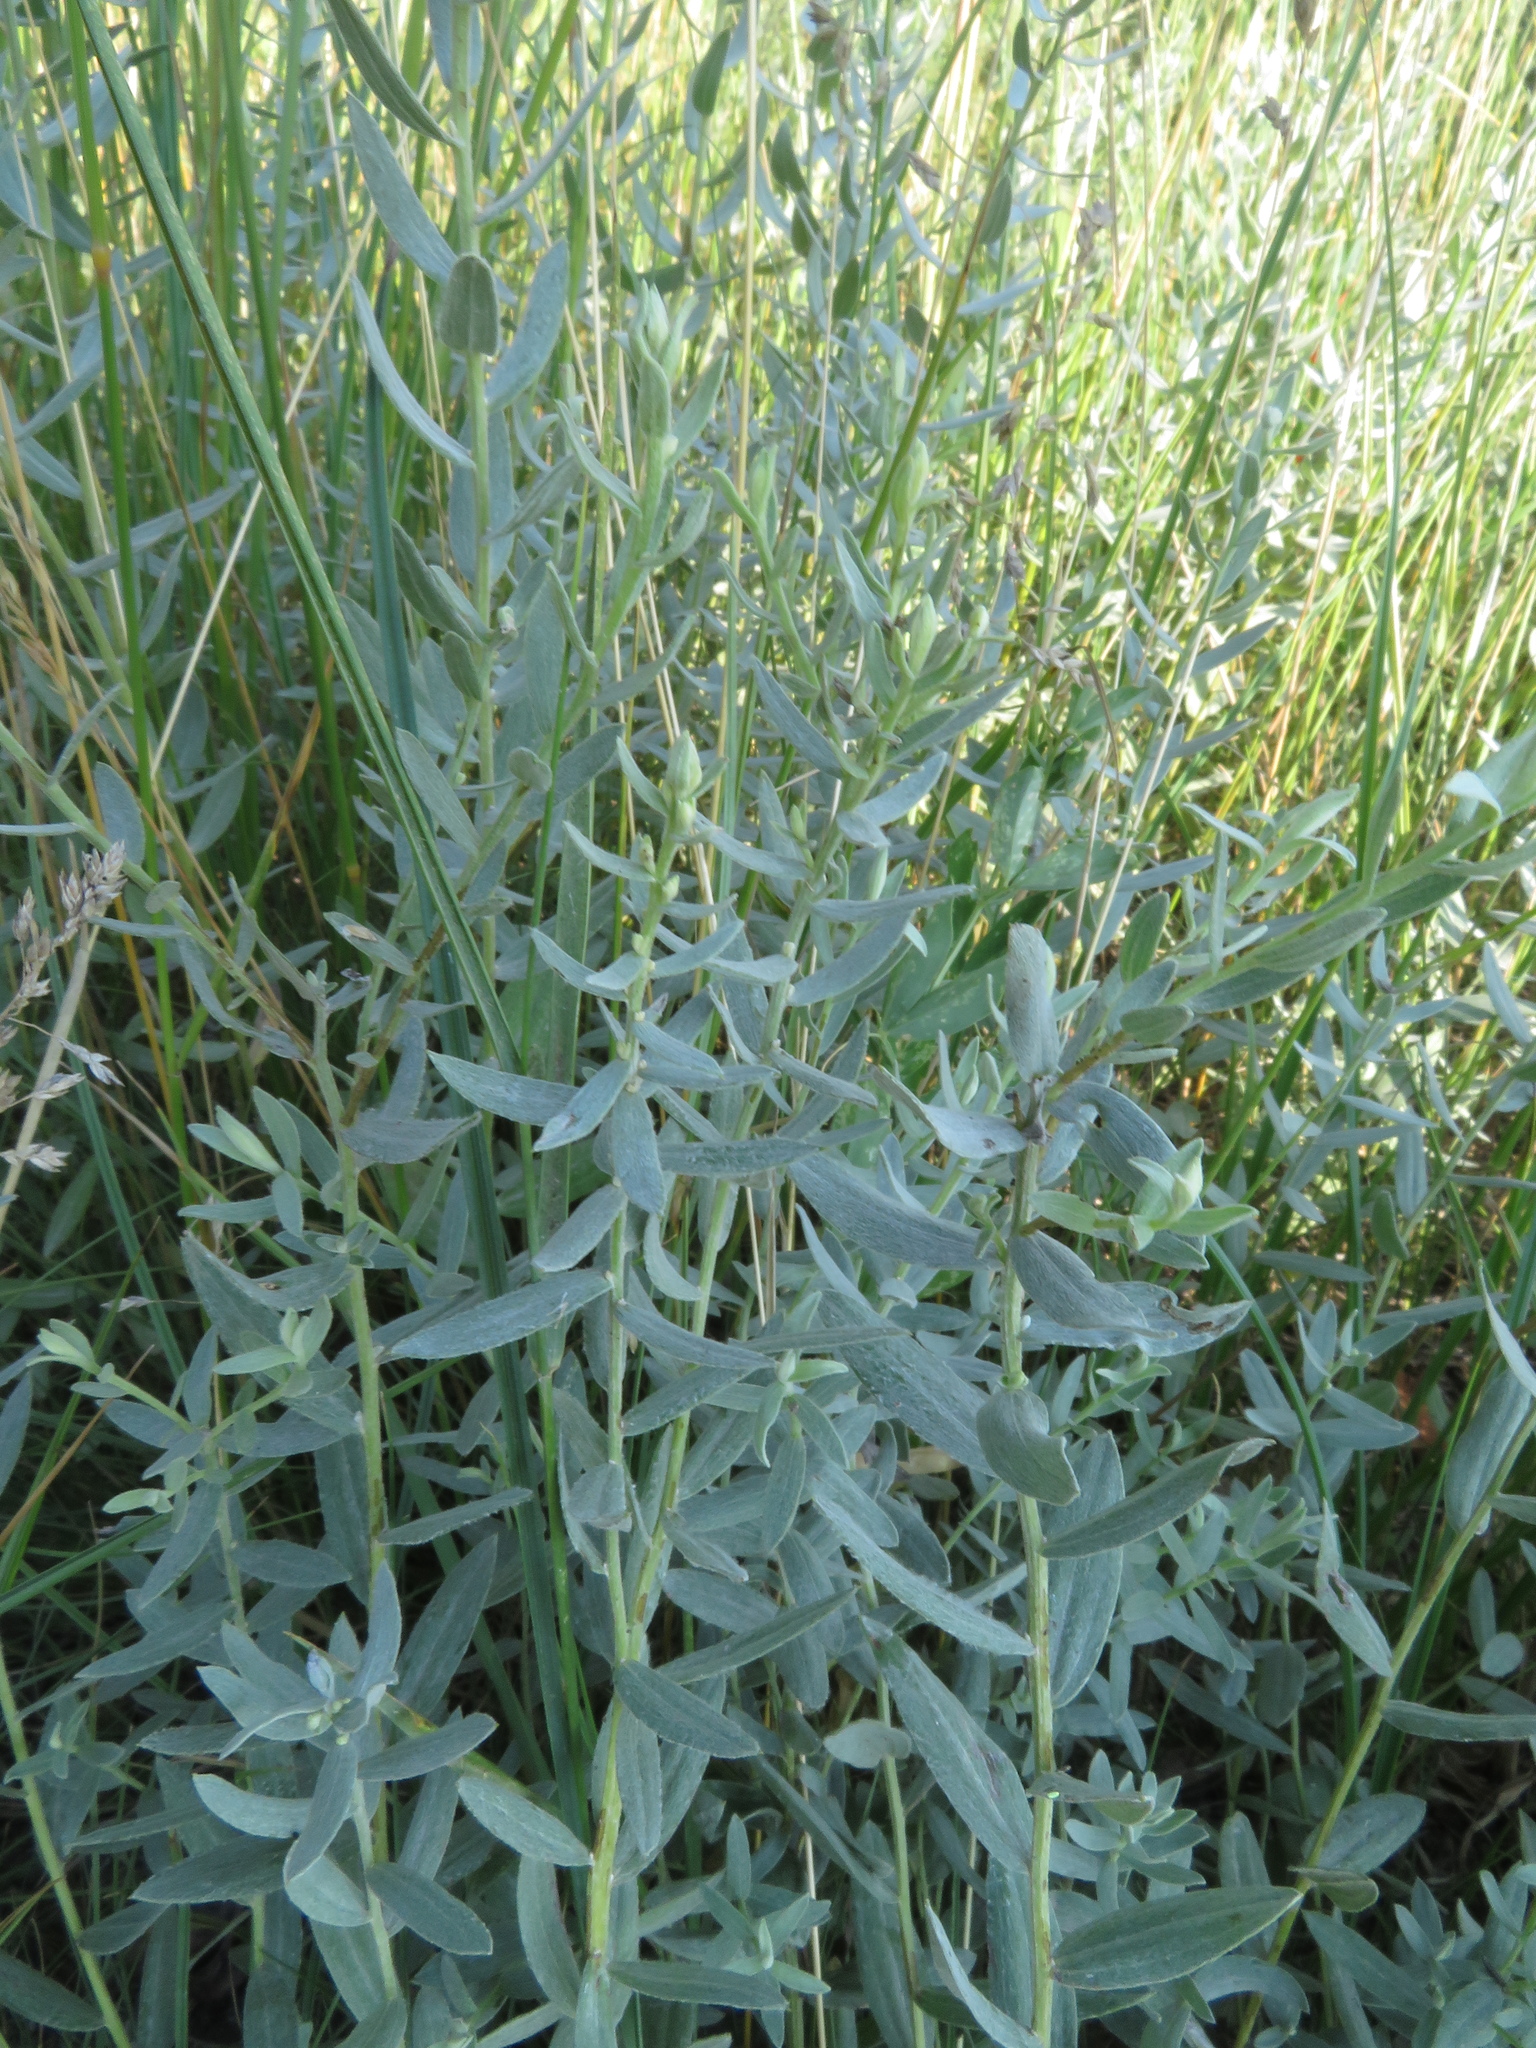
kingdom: Plantae
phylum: Tracheophyta
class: Magnoliopsida
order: Asterales
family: Asteraceae
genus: Galatella
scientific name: Galatella cana
